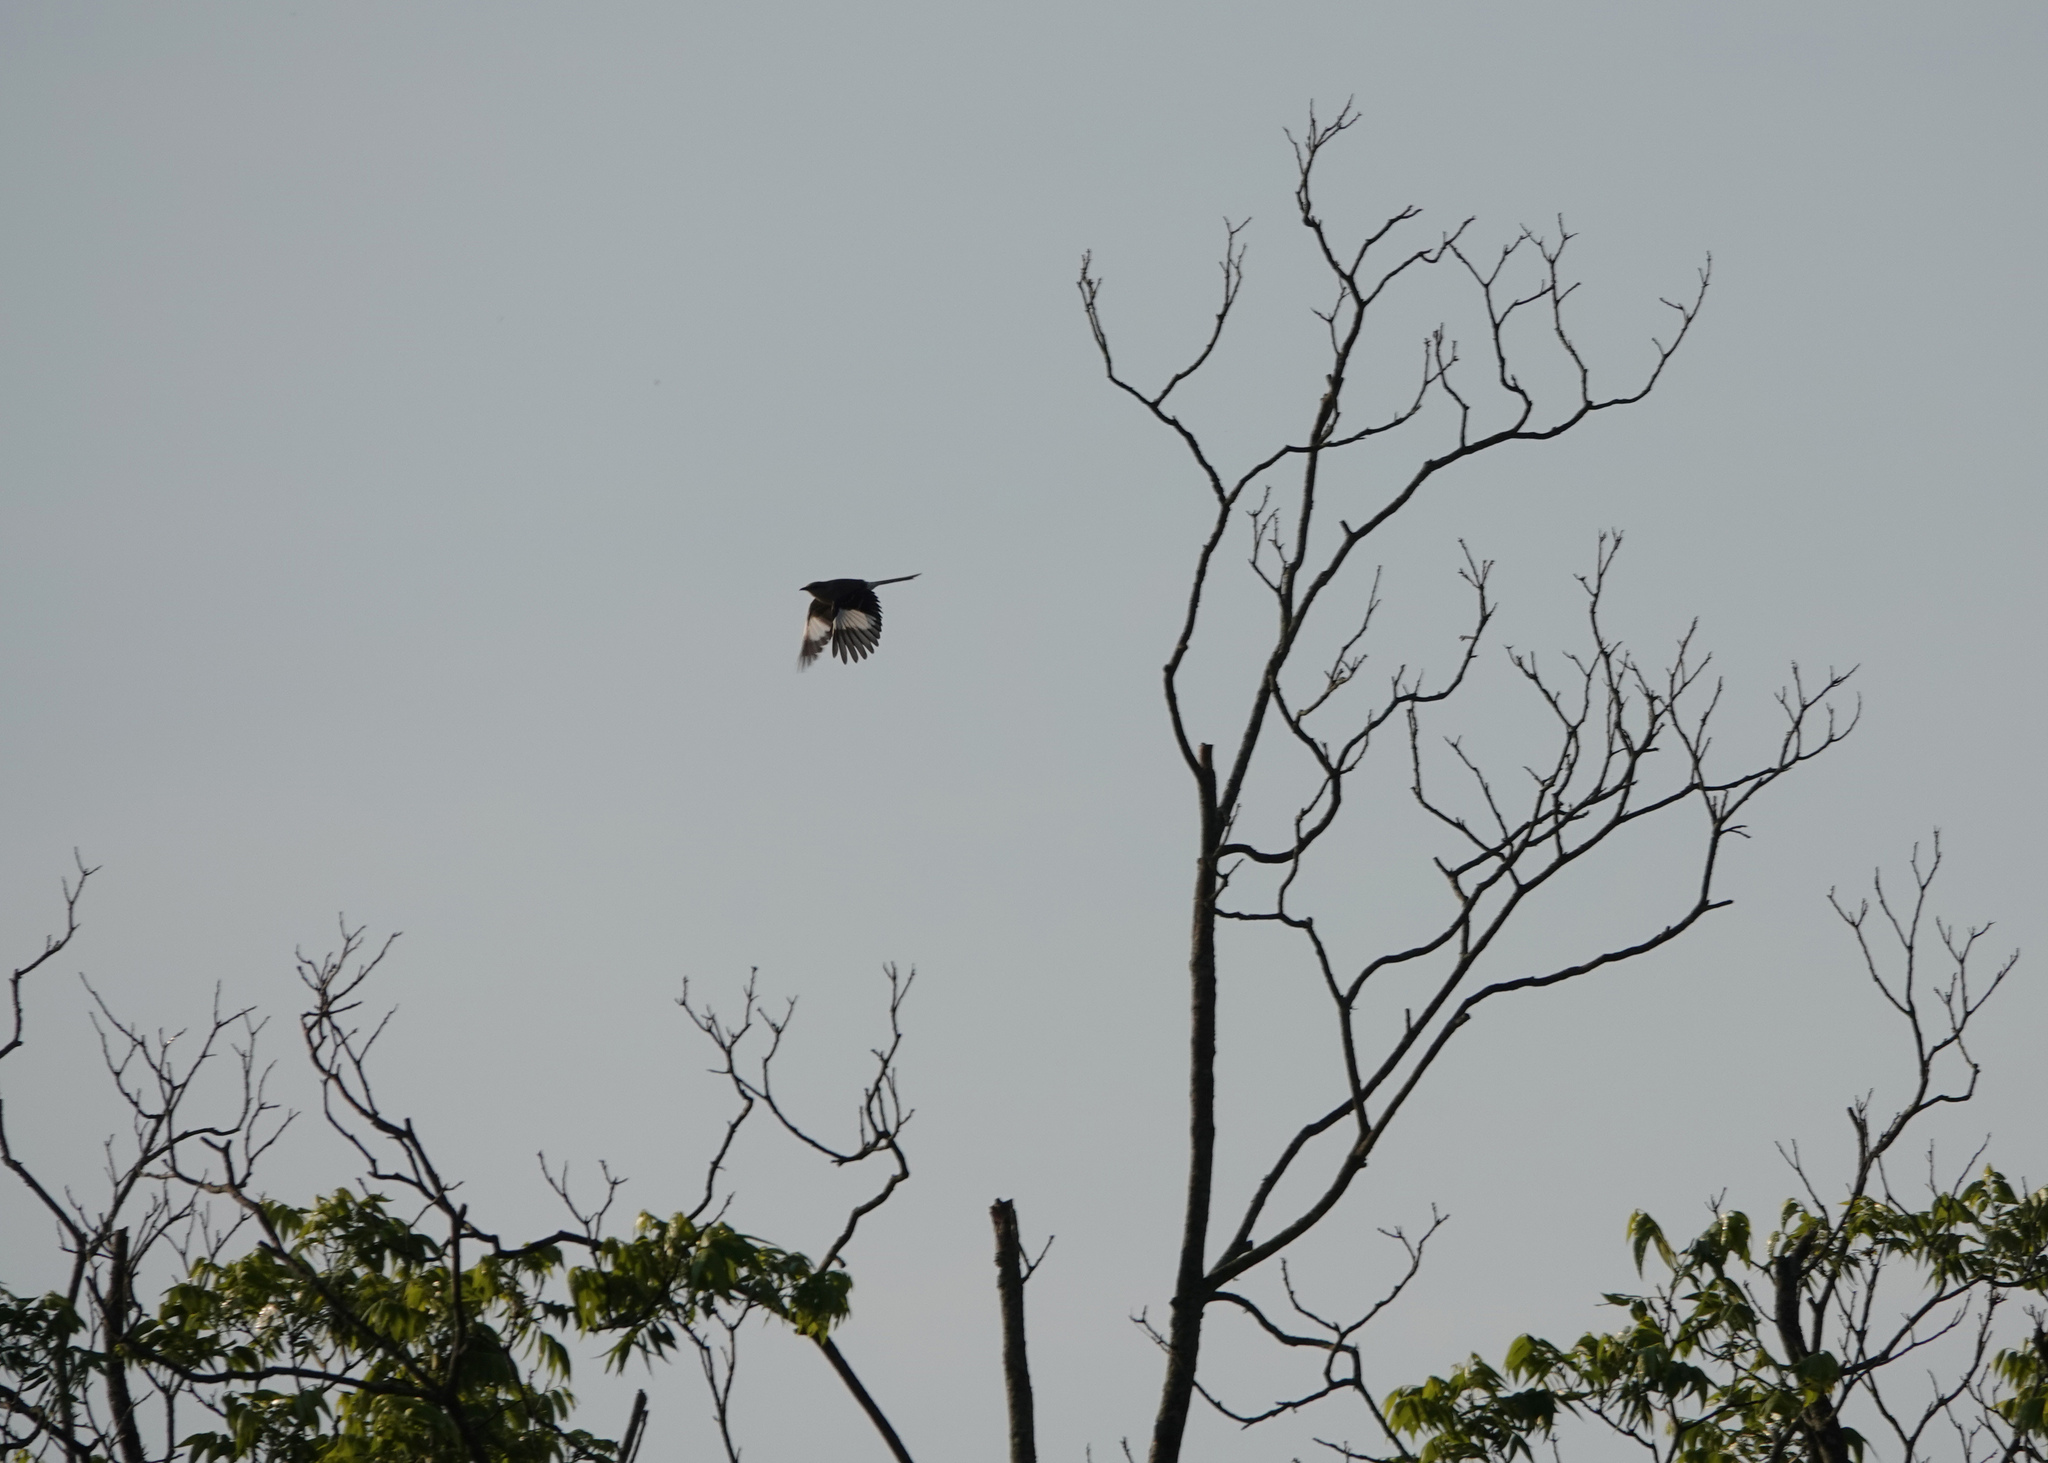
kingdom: Animalia
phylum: Chordata
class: Aves
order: Passeriformes
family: Mimidae
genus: Mimus
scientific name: Mimus polyglottos
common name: Northern mockingbird
